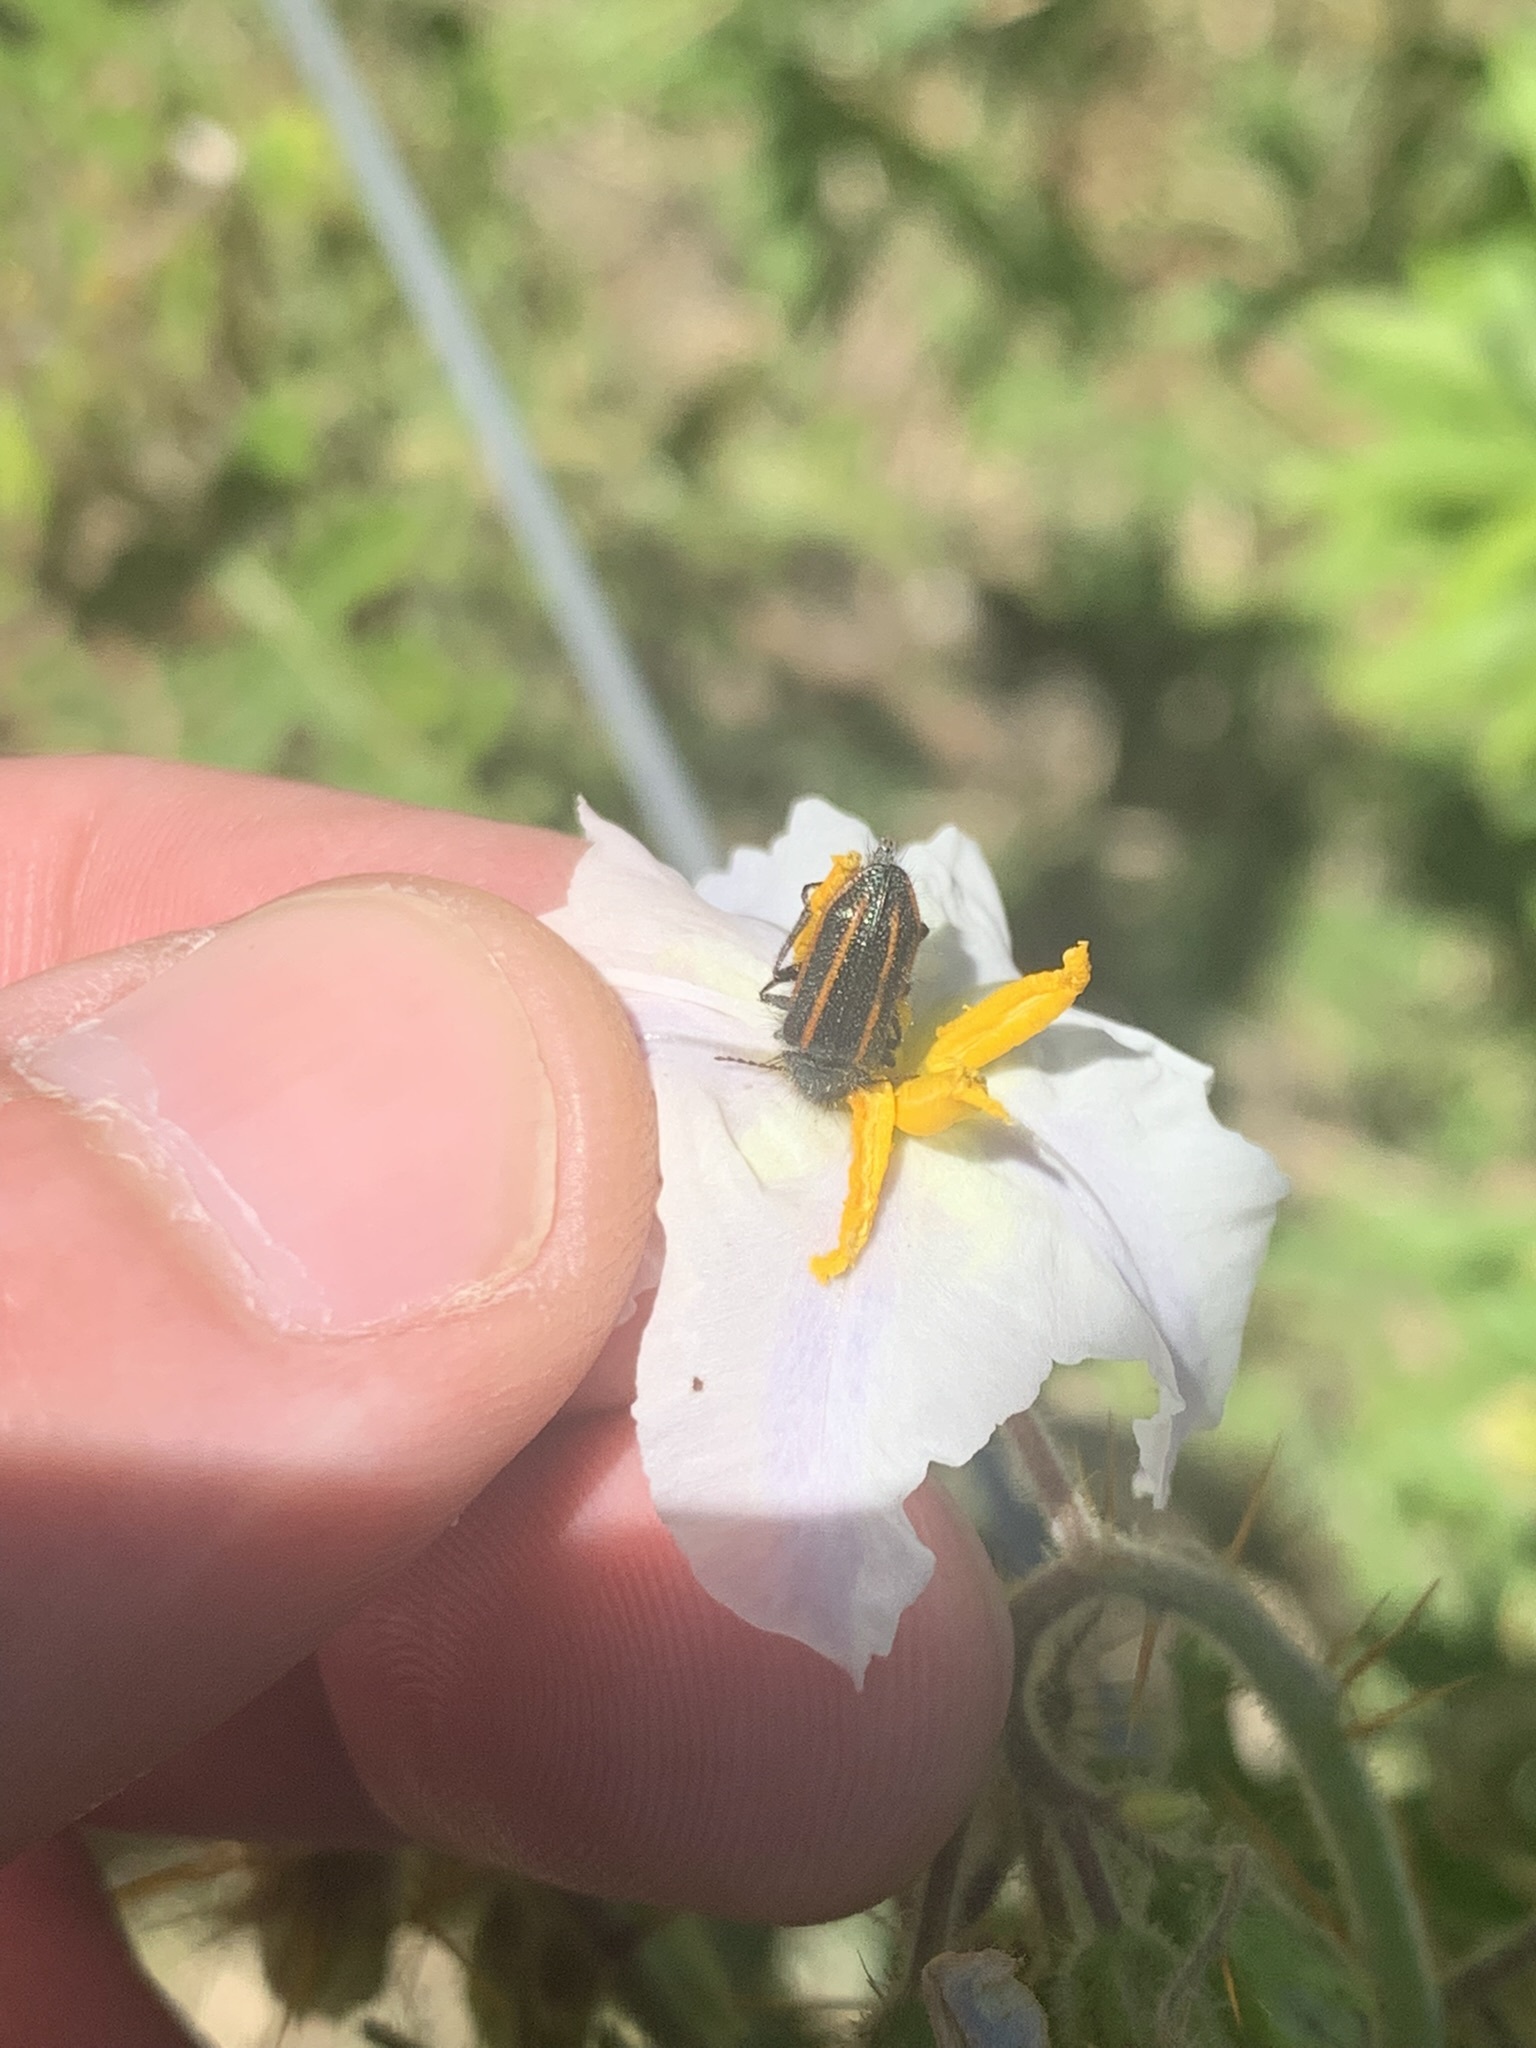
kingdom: Animalia
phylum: Arthropoda
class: Insecta
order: Coleoptera
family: Melyridae
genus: Astylus
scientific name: Astylus
